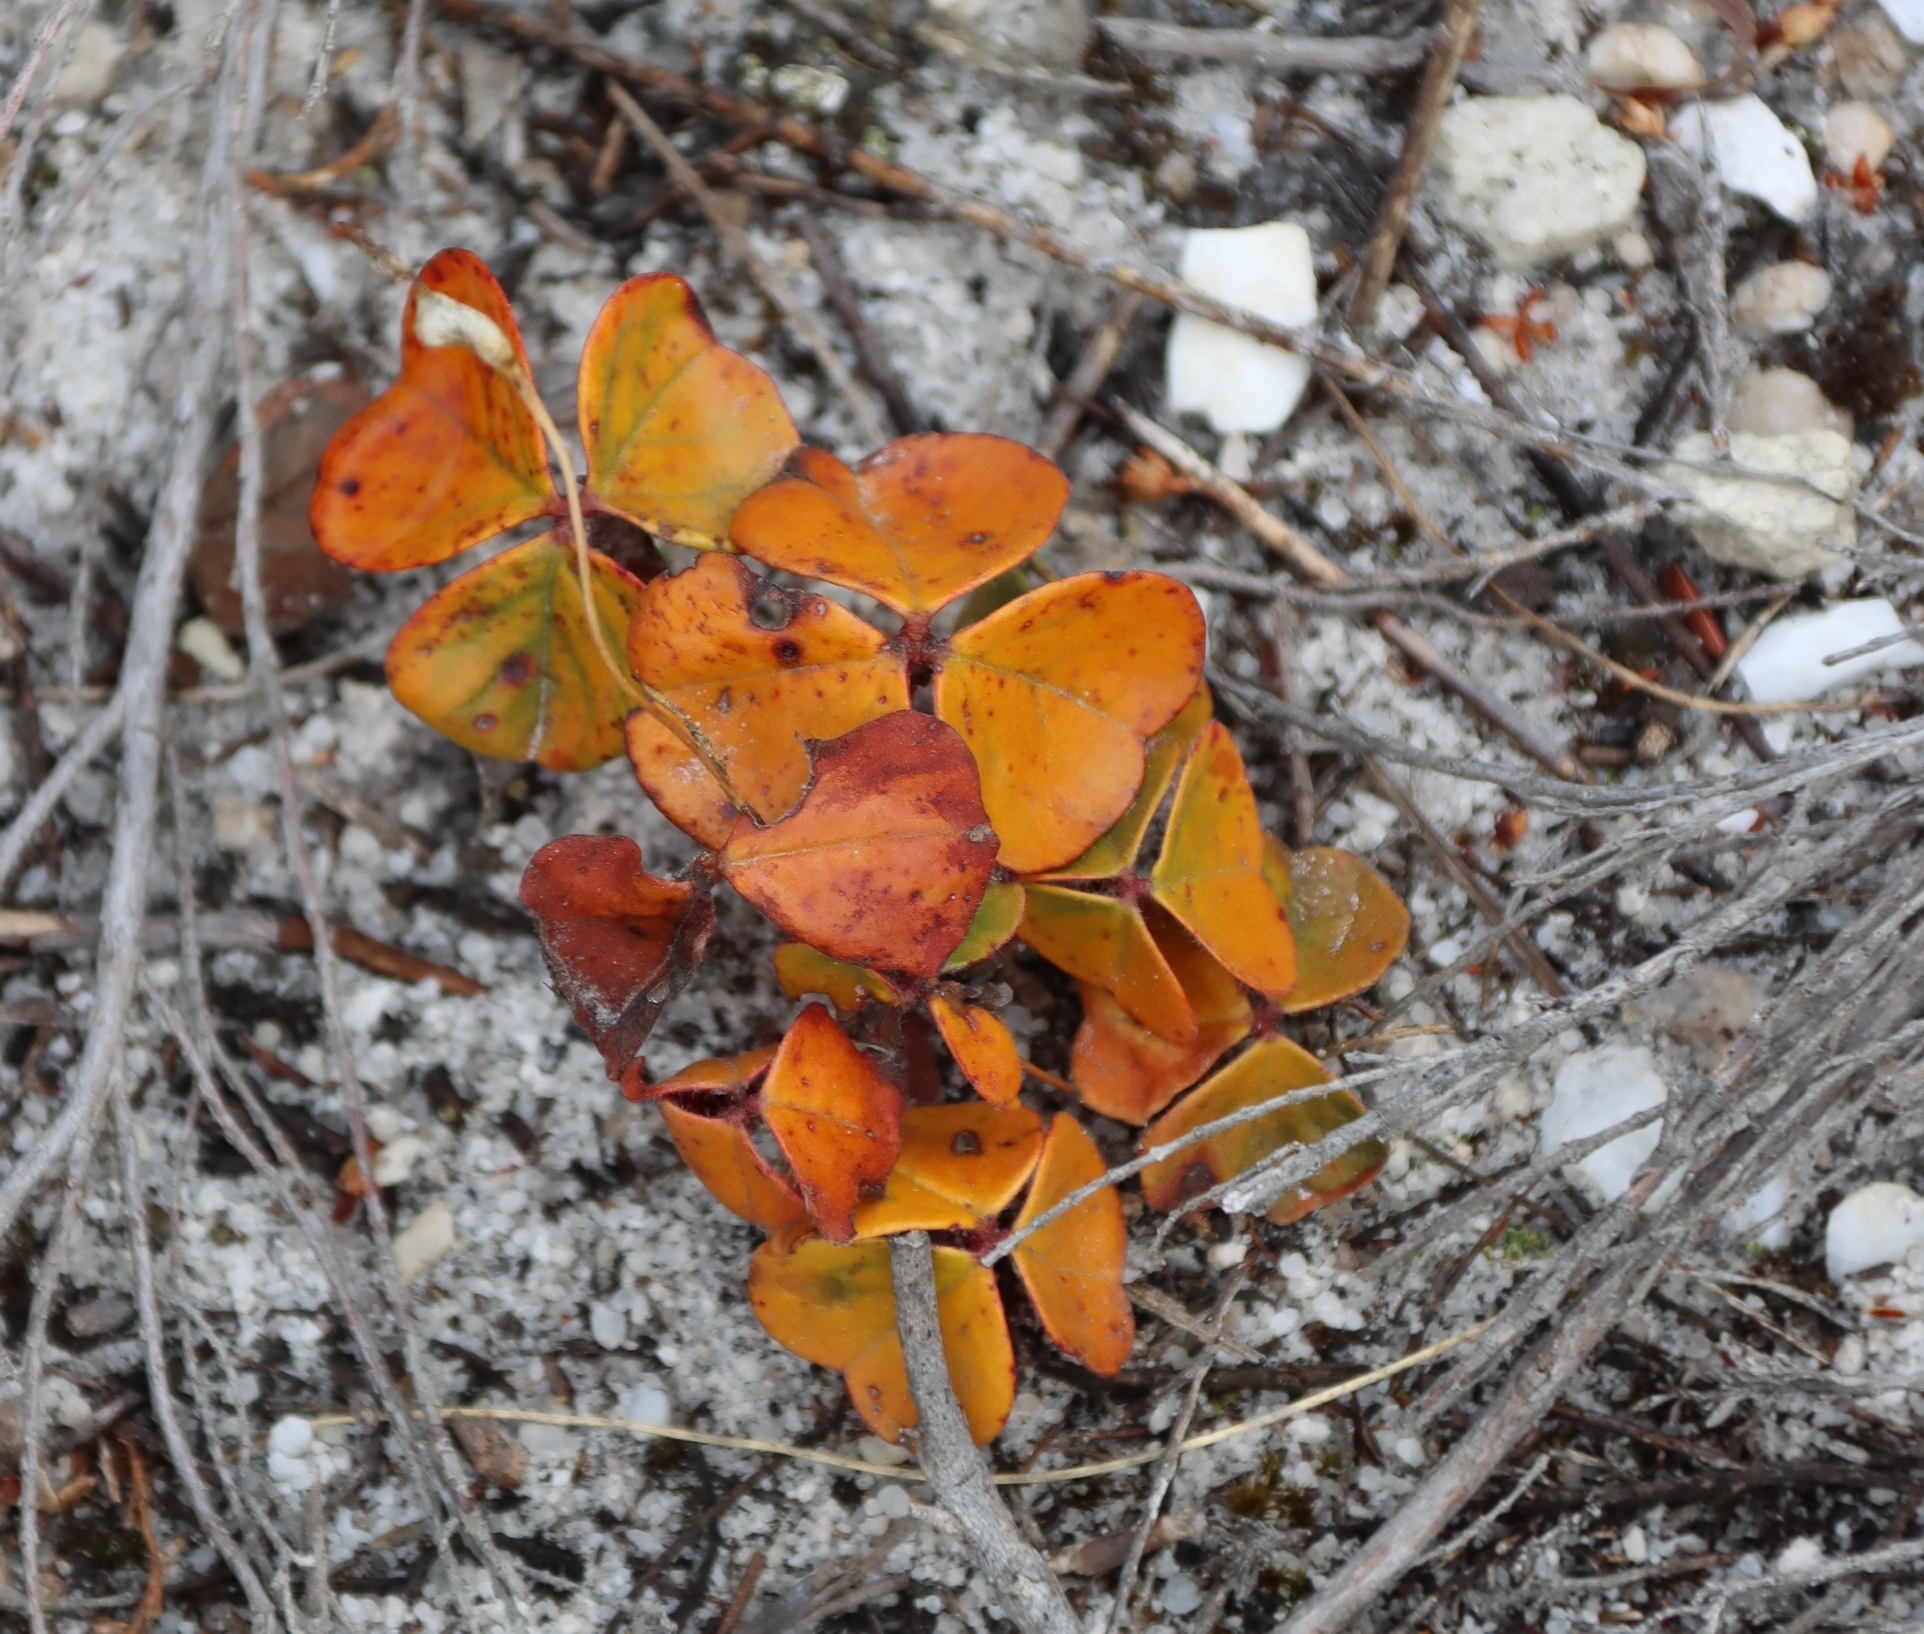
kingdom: Plantae
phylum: Tracheophyta
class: Magnoliopsida
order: Oxalidales
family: Oxalidaceae
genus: Oxalis
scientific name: Oxalis truncatula
